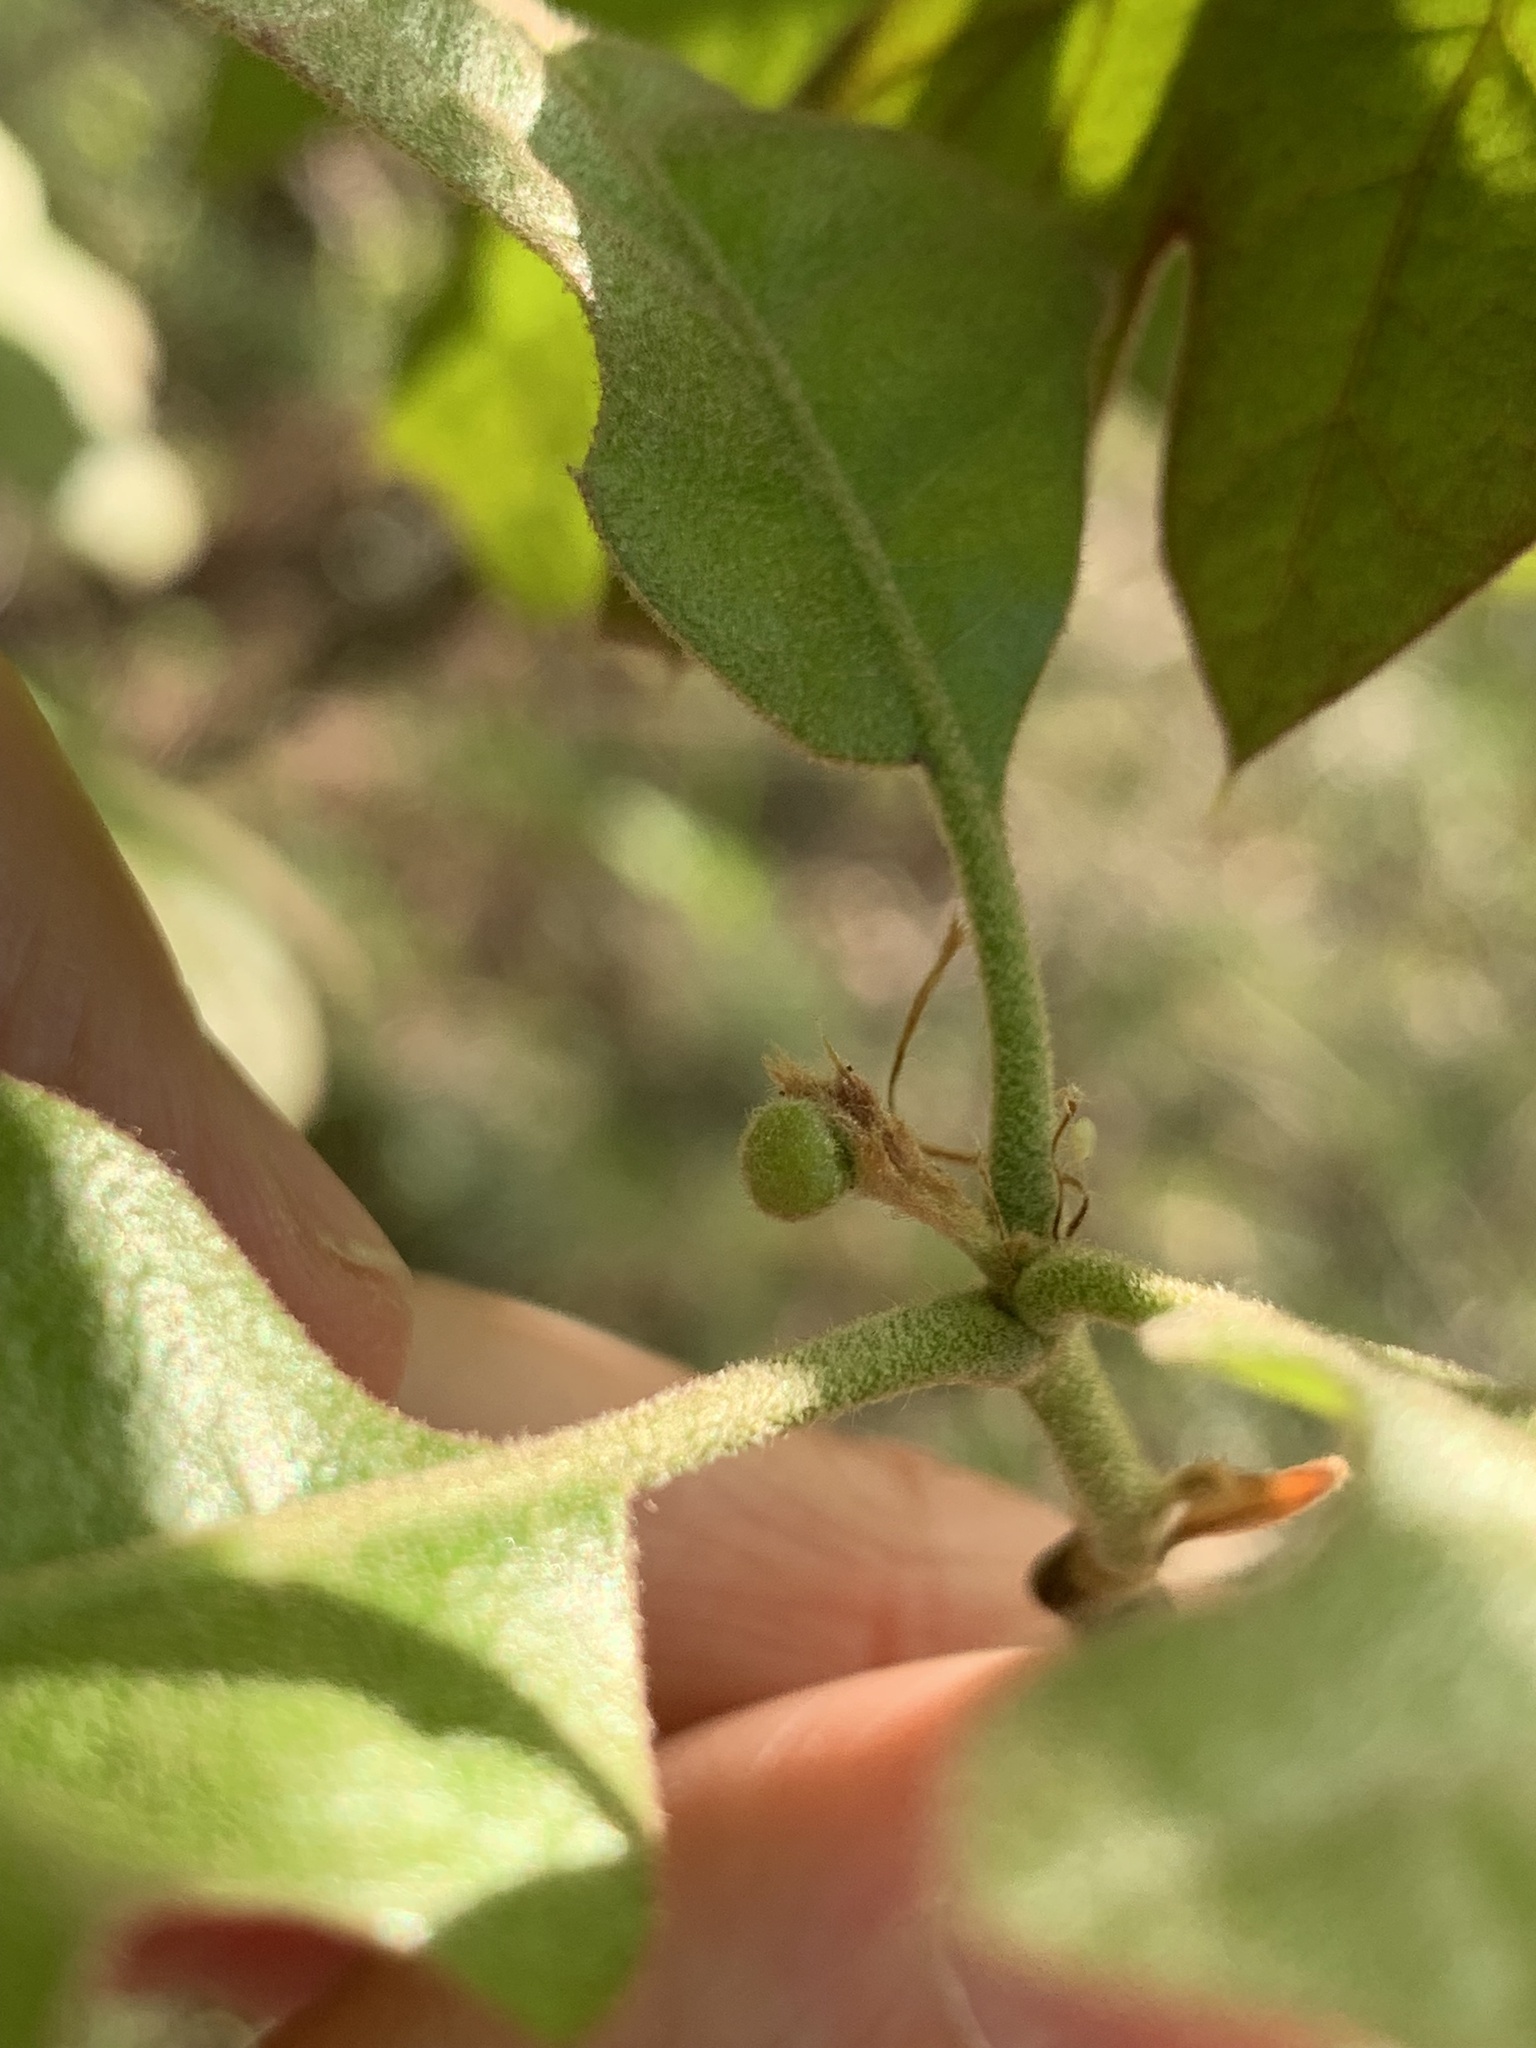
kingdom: Animalia
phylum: Arthropoda
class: Insecta
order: Hymenoptera
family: Cynipidae
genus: Dryocosmus
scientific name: Dryocosmus quercuspalustris
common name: Succulent oak gall wasp
